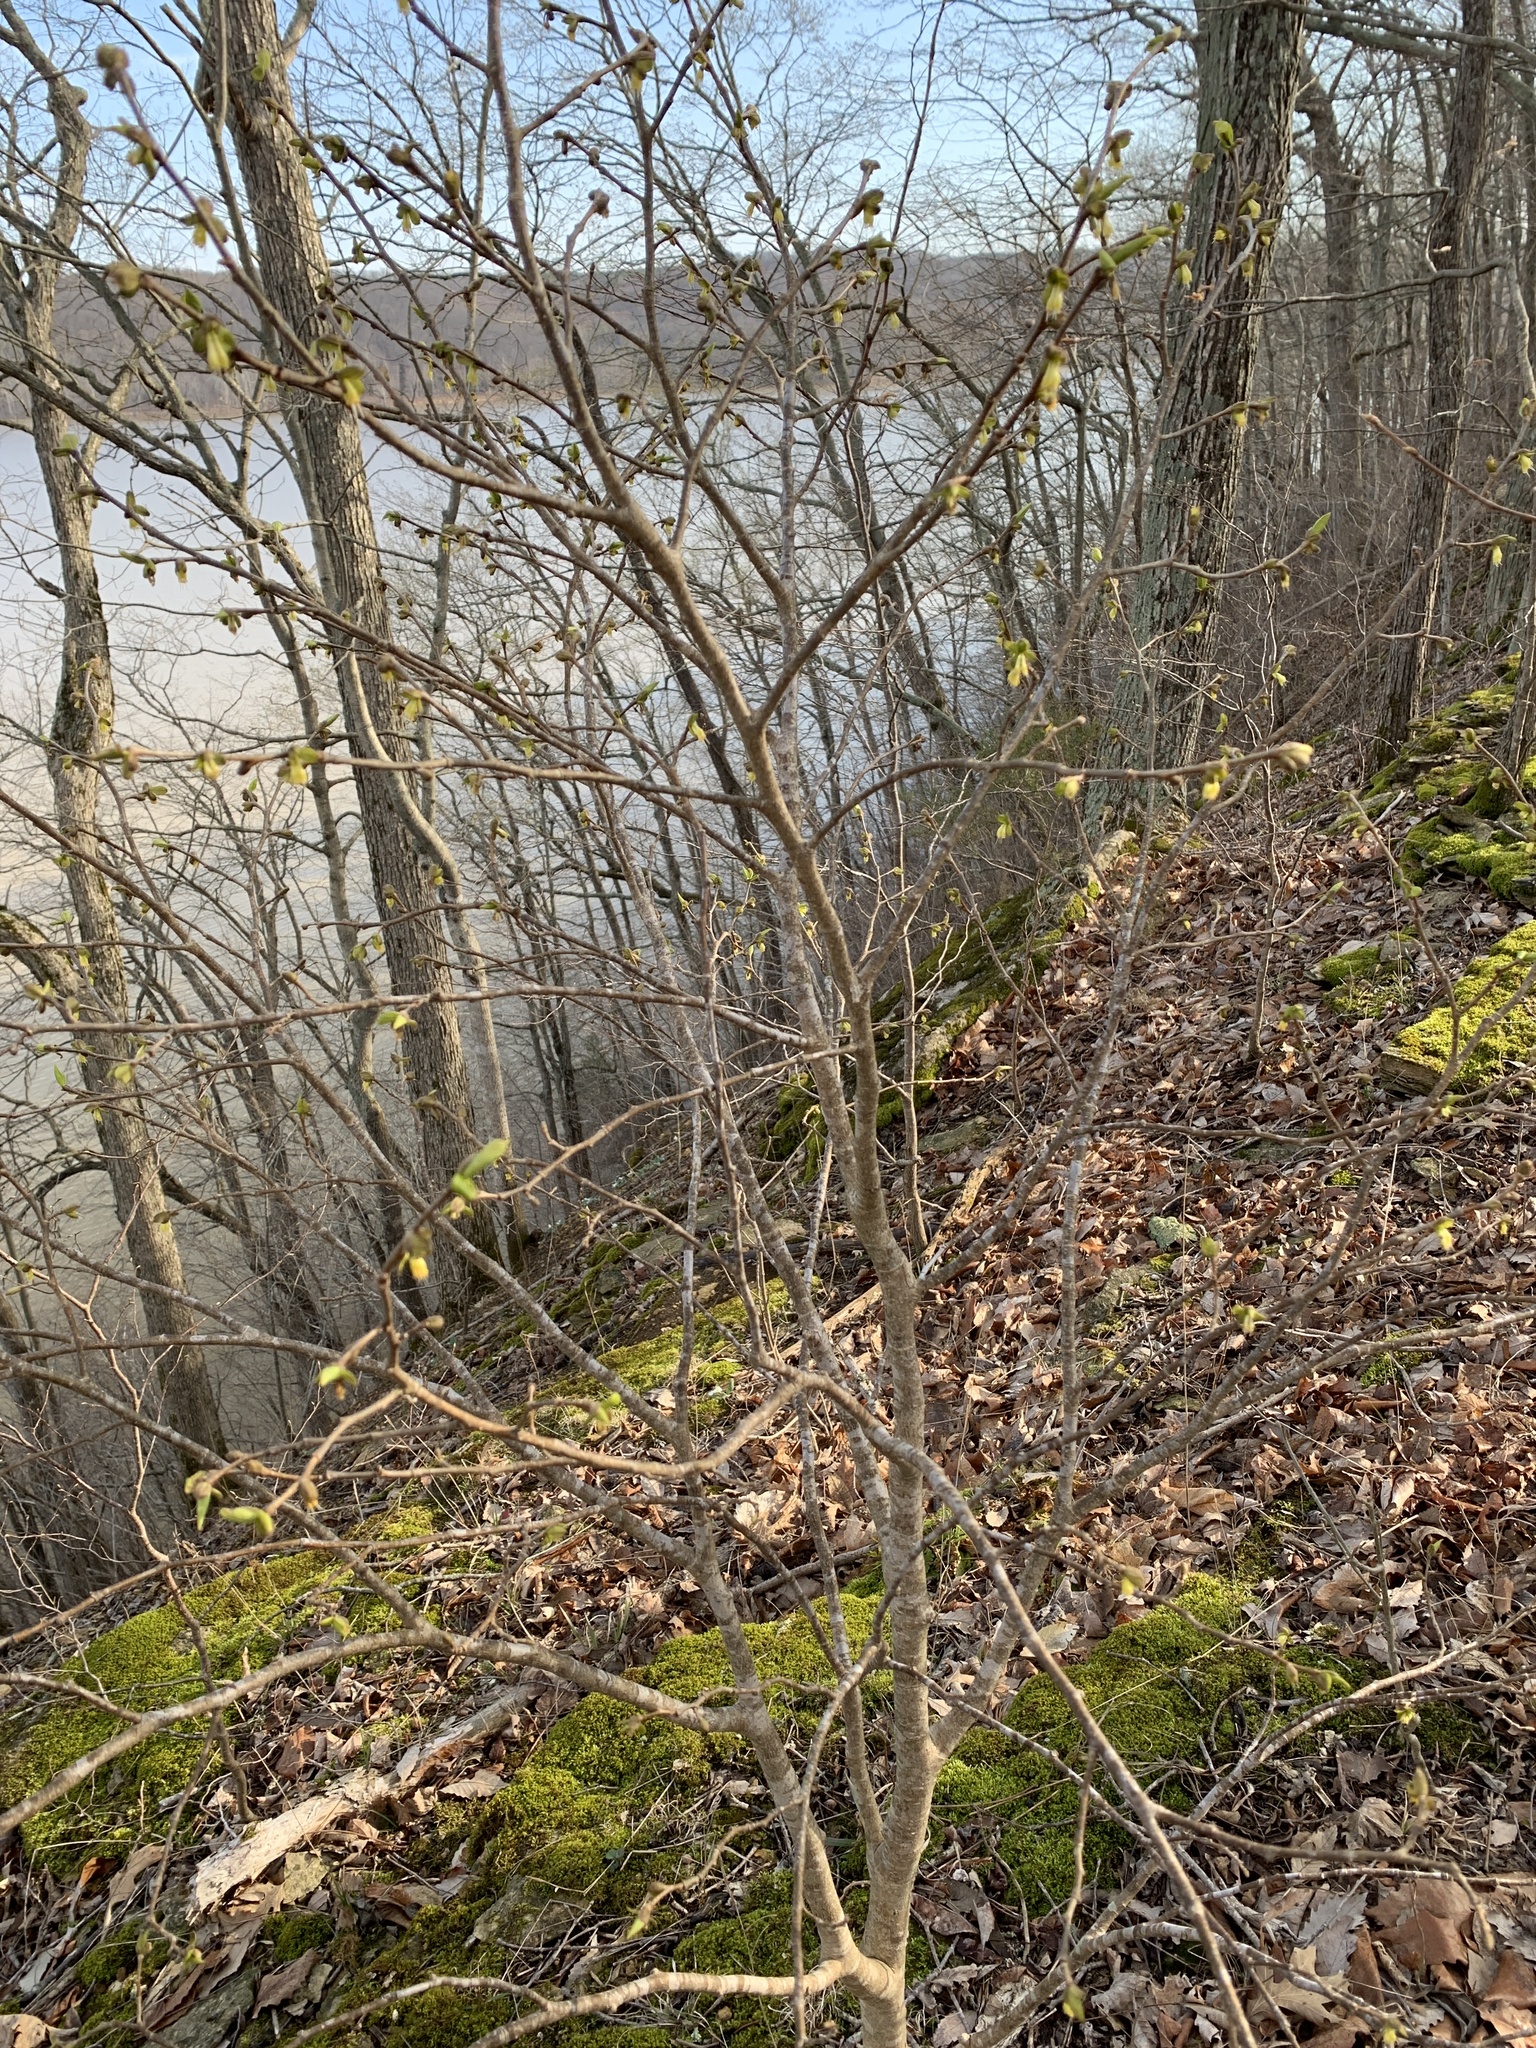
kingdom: Plantae
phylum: Tracheophyta
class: Magnoliopsida
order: Malvales
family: Thymelaeaceae
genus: Dirca
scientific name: Dirca palustris
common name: Leatherwood
